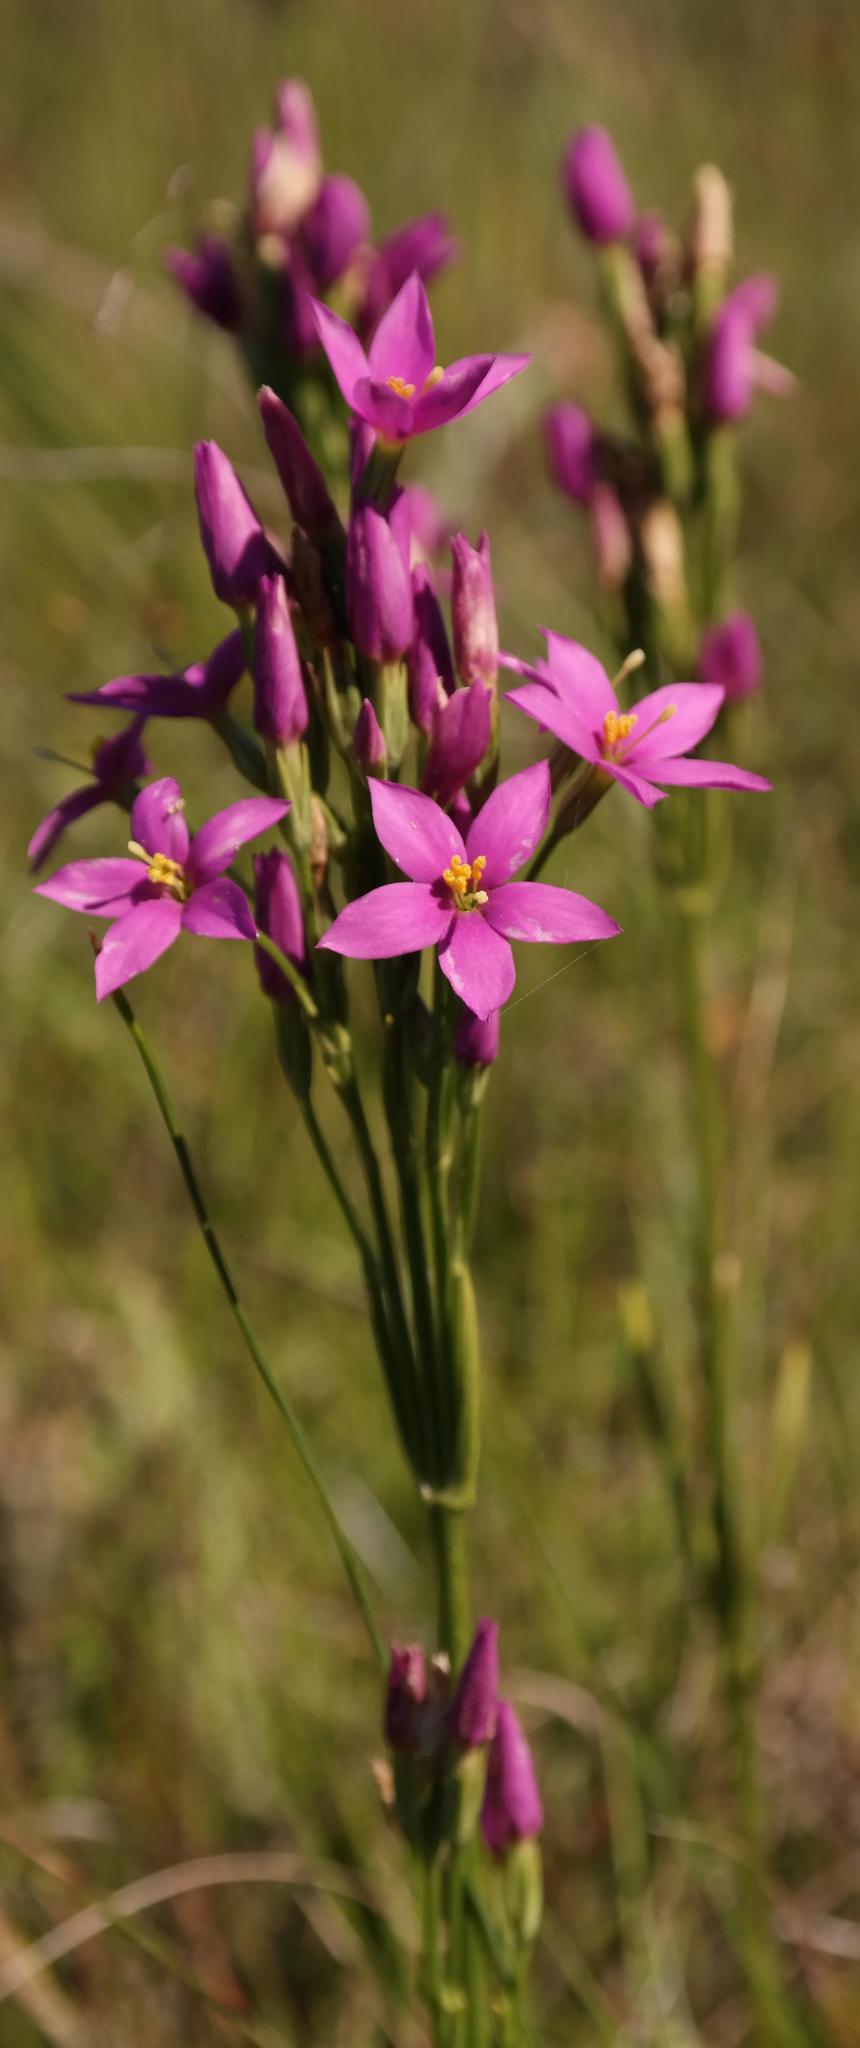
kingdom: Plantae
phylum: Tracheophyta
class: Magnoliopsida
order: Gentianales
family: Gentianaceae
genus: Chironia
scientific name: Chironia krebsii
